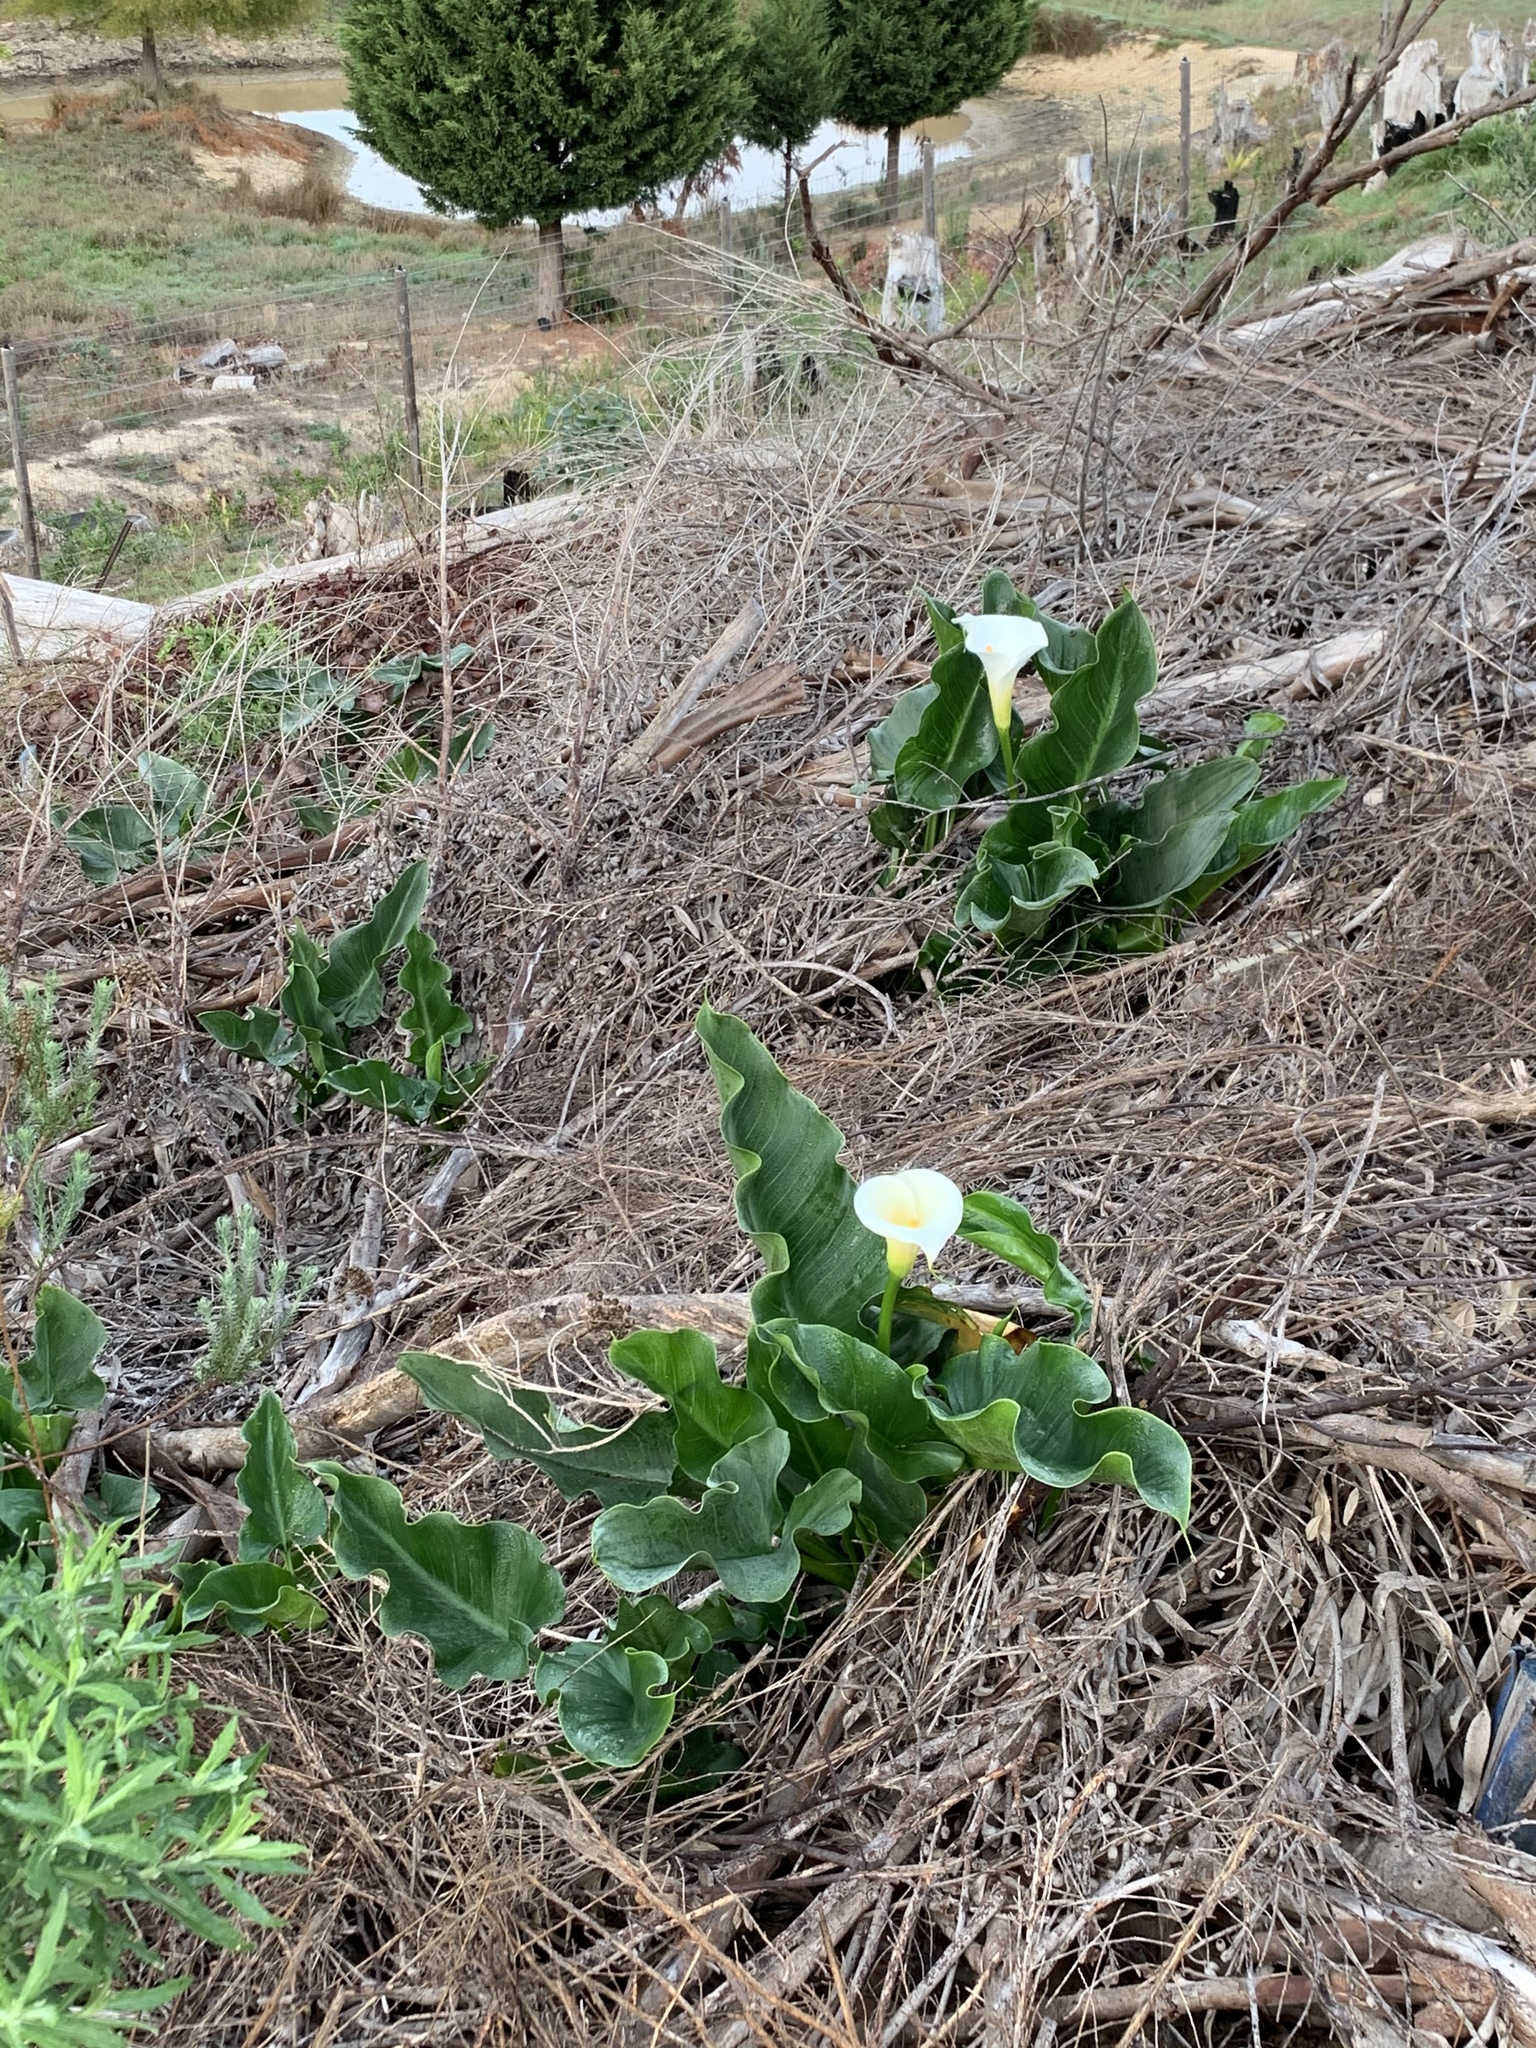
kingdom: Plantae
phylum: Tracheophyta
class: Liliopsida
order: Alismatales
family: Araceae
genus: Zantedeschia
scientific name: Zantedeschia aethiopica
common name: Altar-lily
